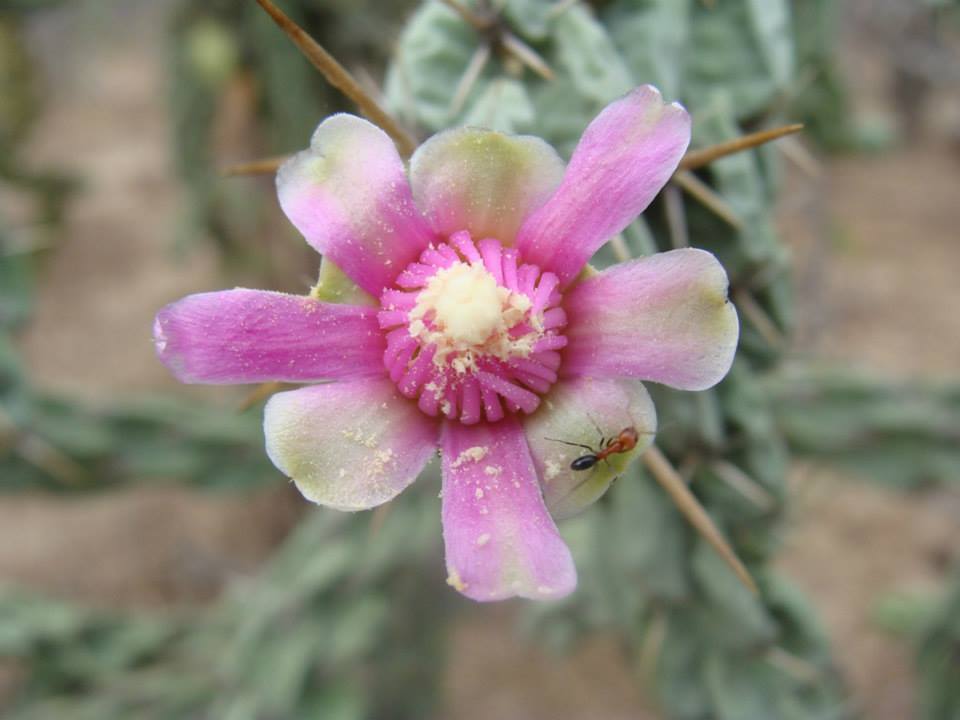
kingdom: Plantae
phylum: Tracheophyta
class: Magnoliopsida
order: Caryophyllales
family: Cactaceae
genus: Cylindropuntia
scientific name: Cylindropuntia cholla
